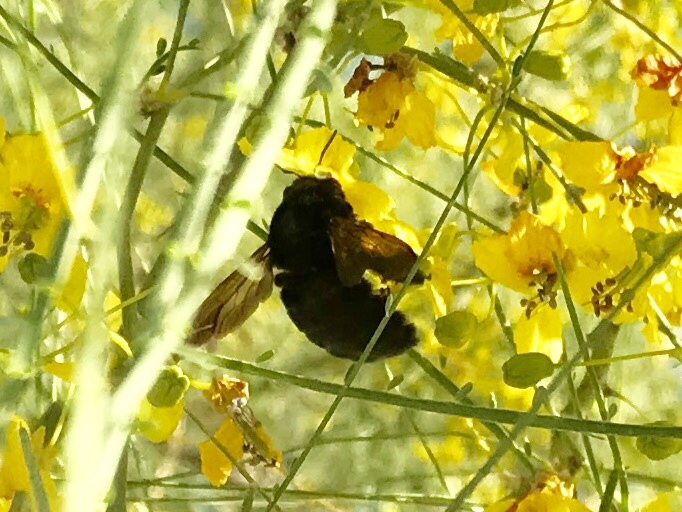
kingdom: Animalia
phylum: Arthropoda
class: Insecta
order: Hymenoptera
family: Apidae
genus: Xylocopa
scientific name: Xylocopa sonorina
